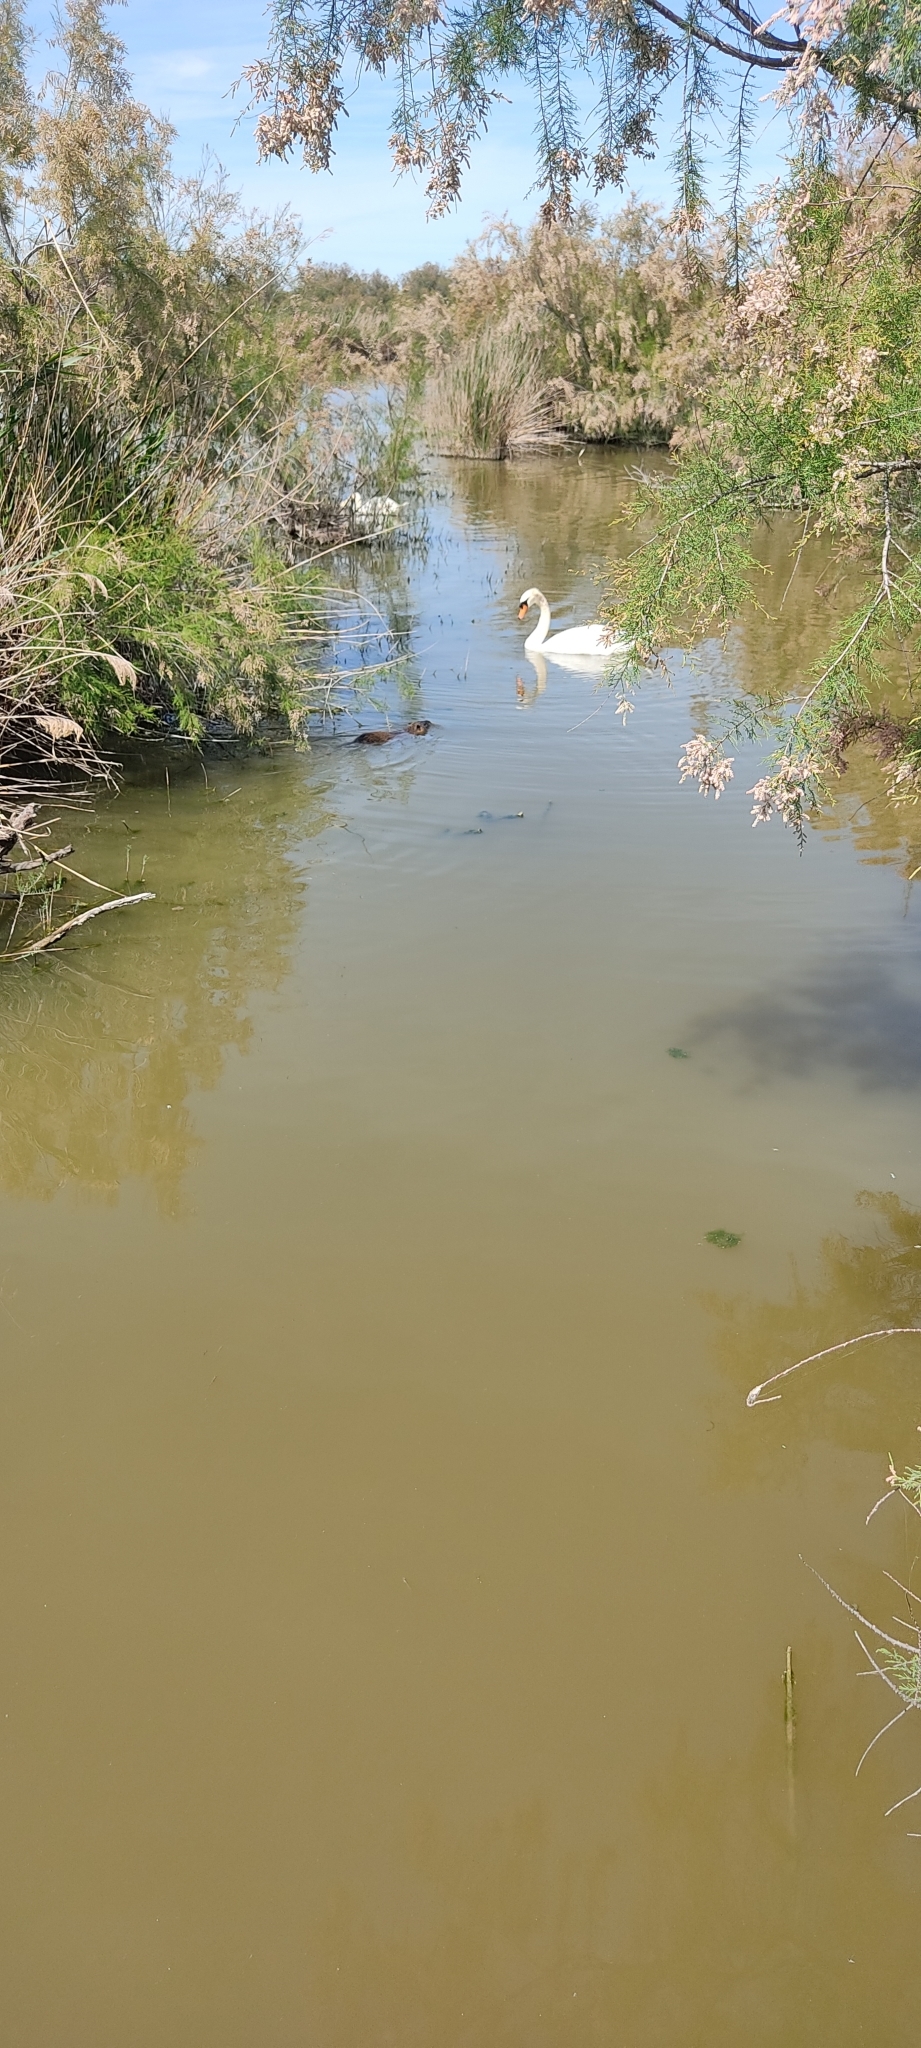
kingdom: Animalia
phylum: Chordata
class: Mammalia
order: Rodentia
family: Myocastoridae
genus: Myocastor
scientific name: Myocastor coypus
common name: Coypu
